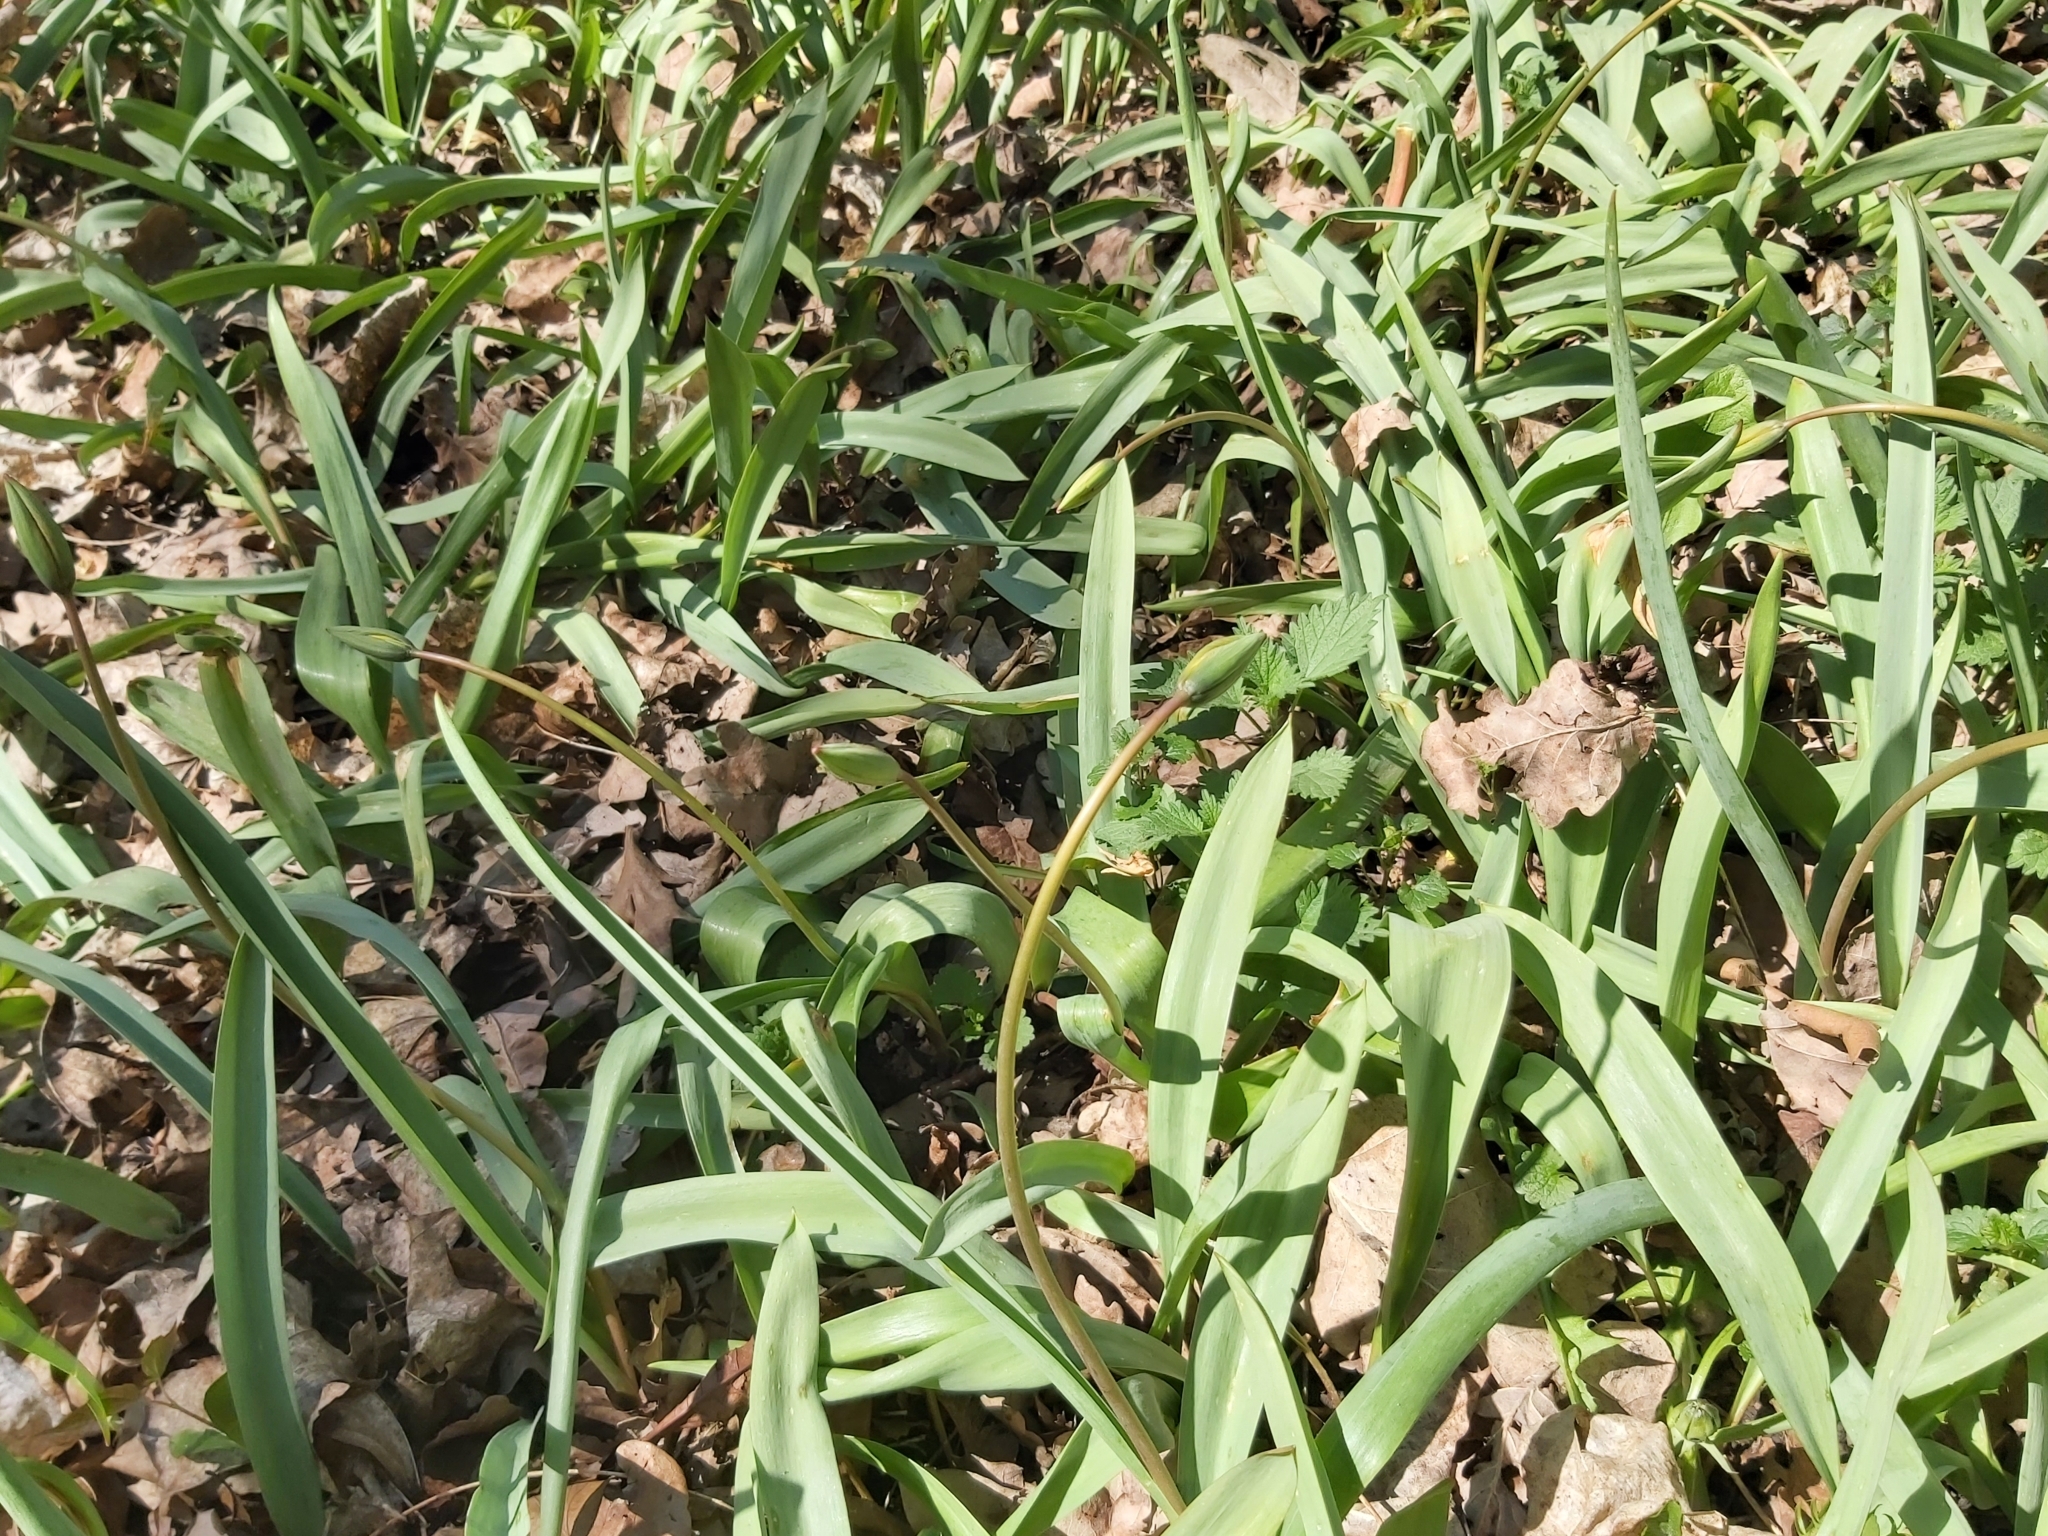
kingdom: Plantae
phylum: Tracheophyta
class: Liliopsida
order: Liliales
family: Liliaceae
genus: Tulipa
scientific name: Tulipa sylvestris
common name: Wild tulip
